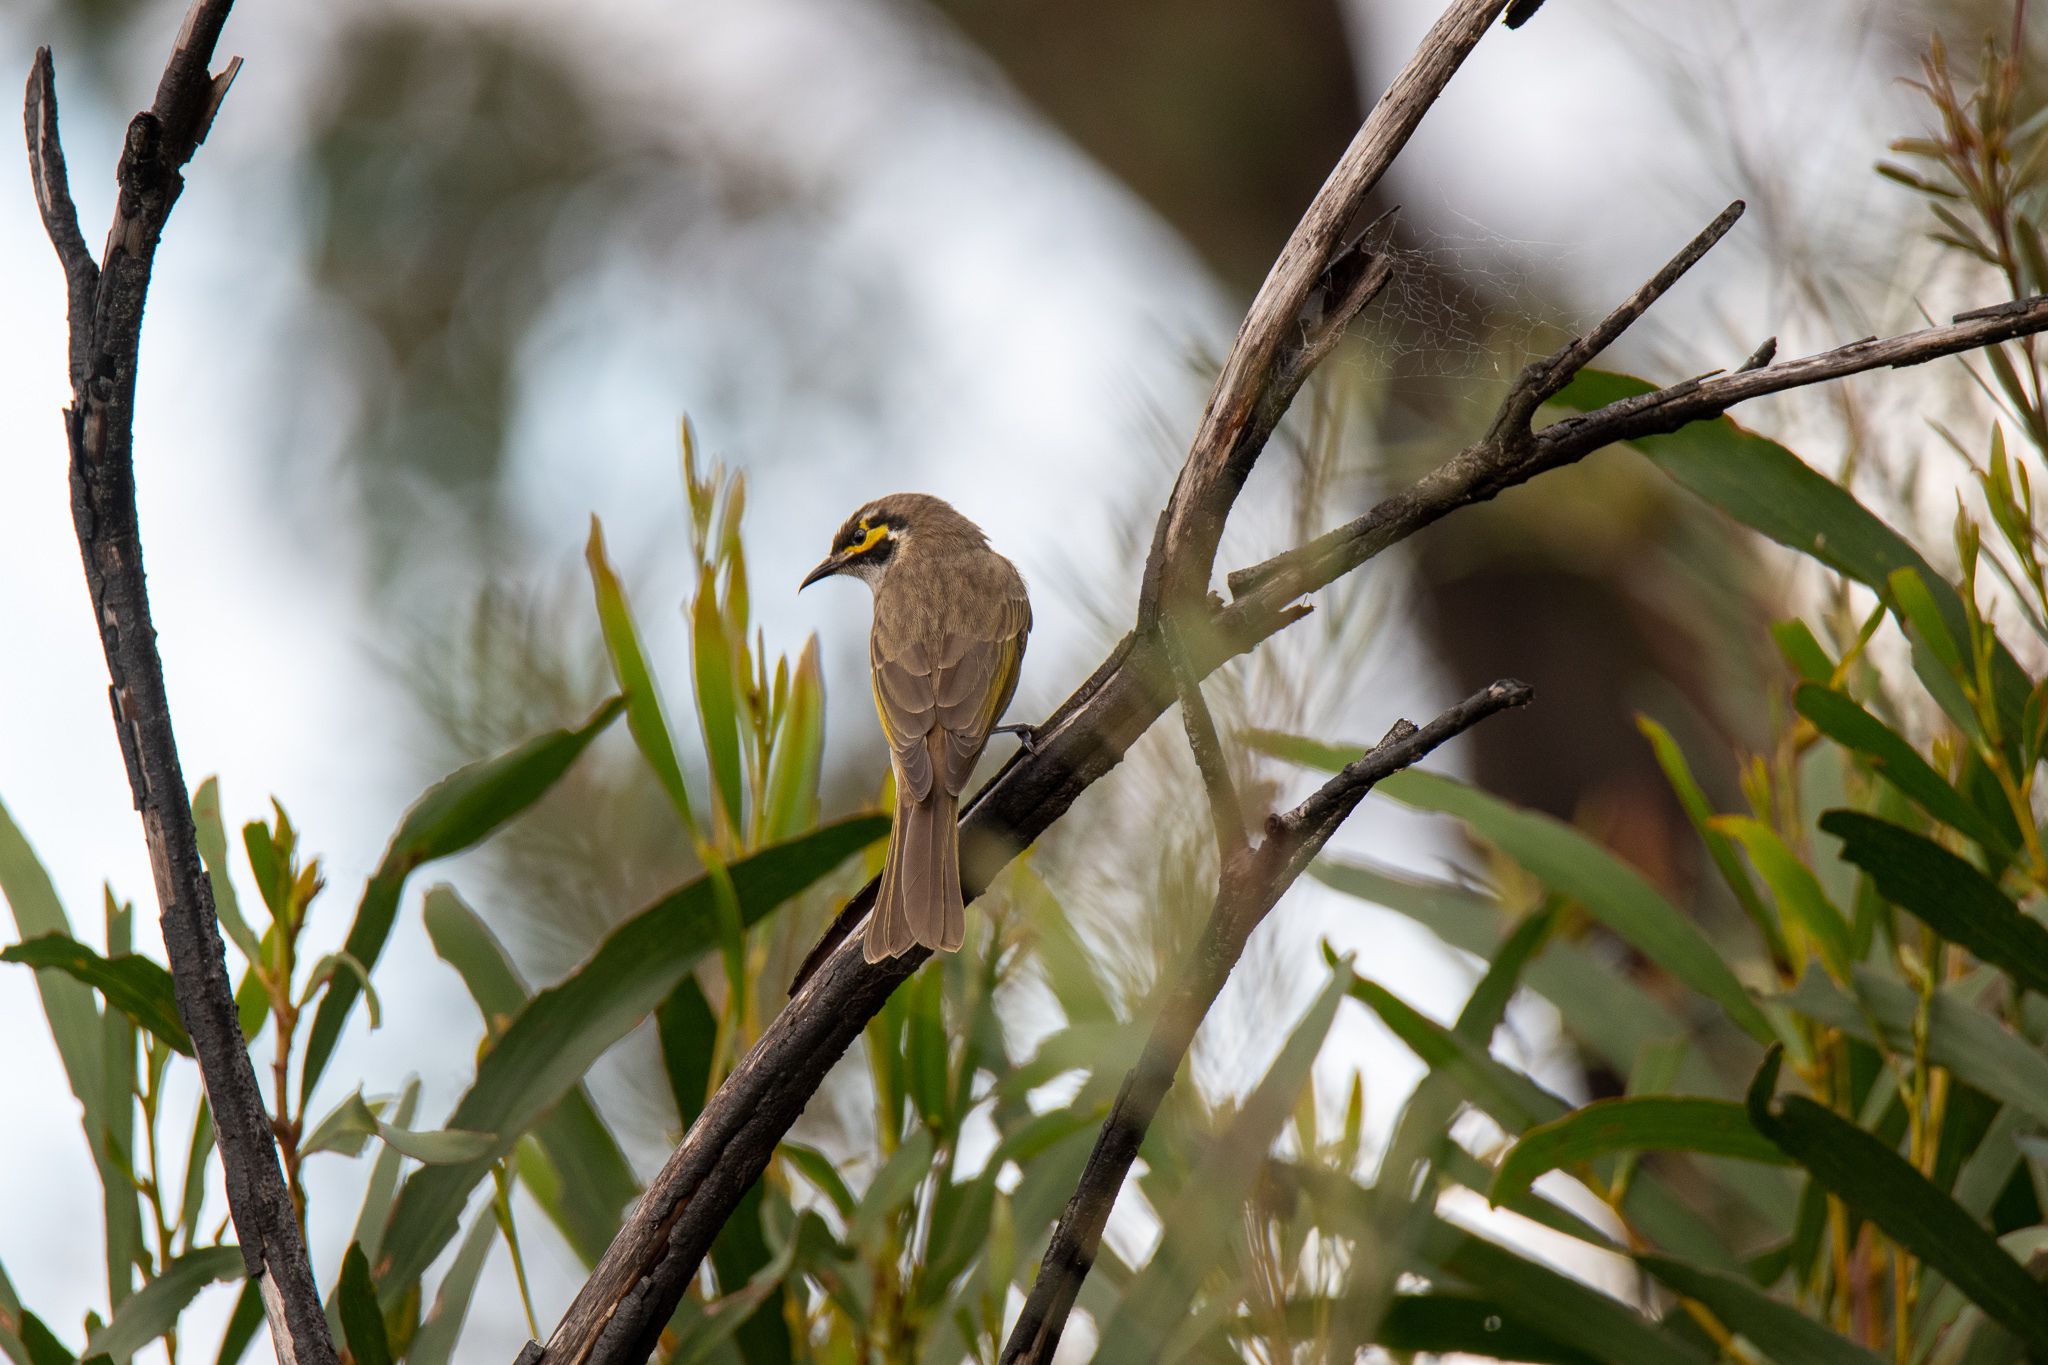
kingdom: Animalia
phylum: Chordata
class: Aves
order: Passeriformes
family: Meliphagidae
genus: Caligavis
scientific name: Caligavis chrysops
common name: Yellow-faced honeyeater
